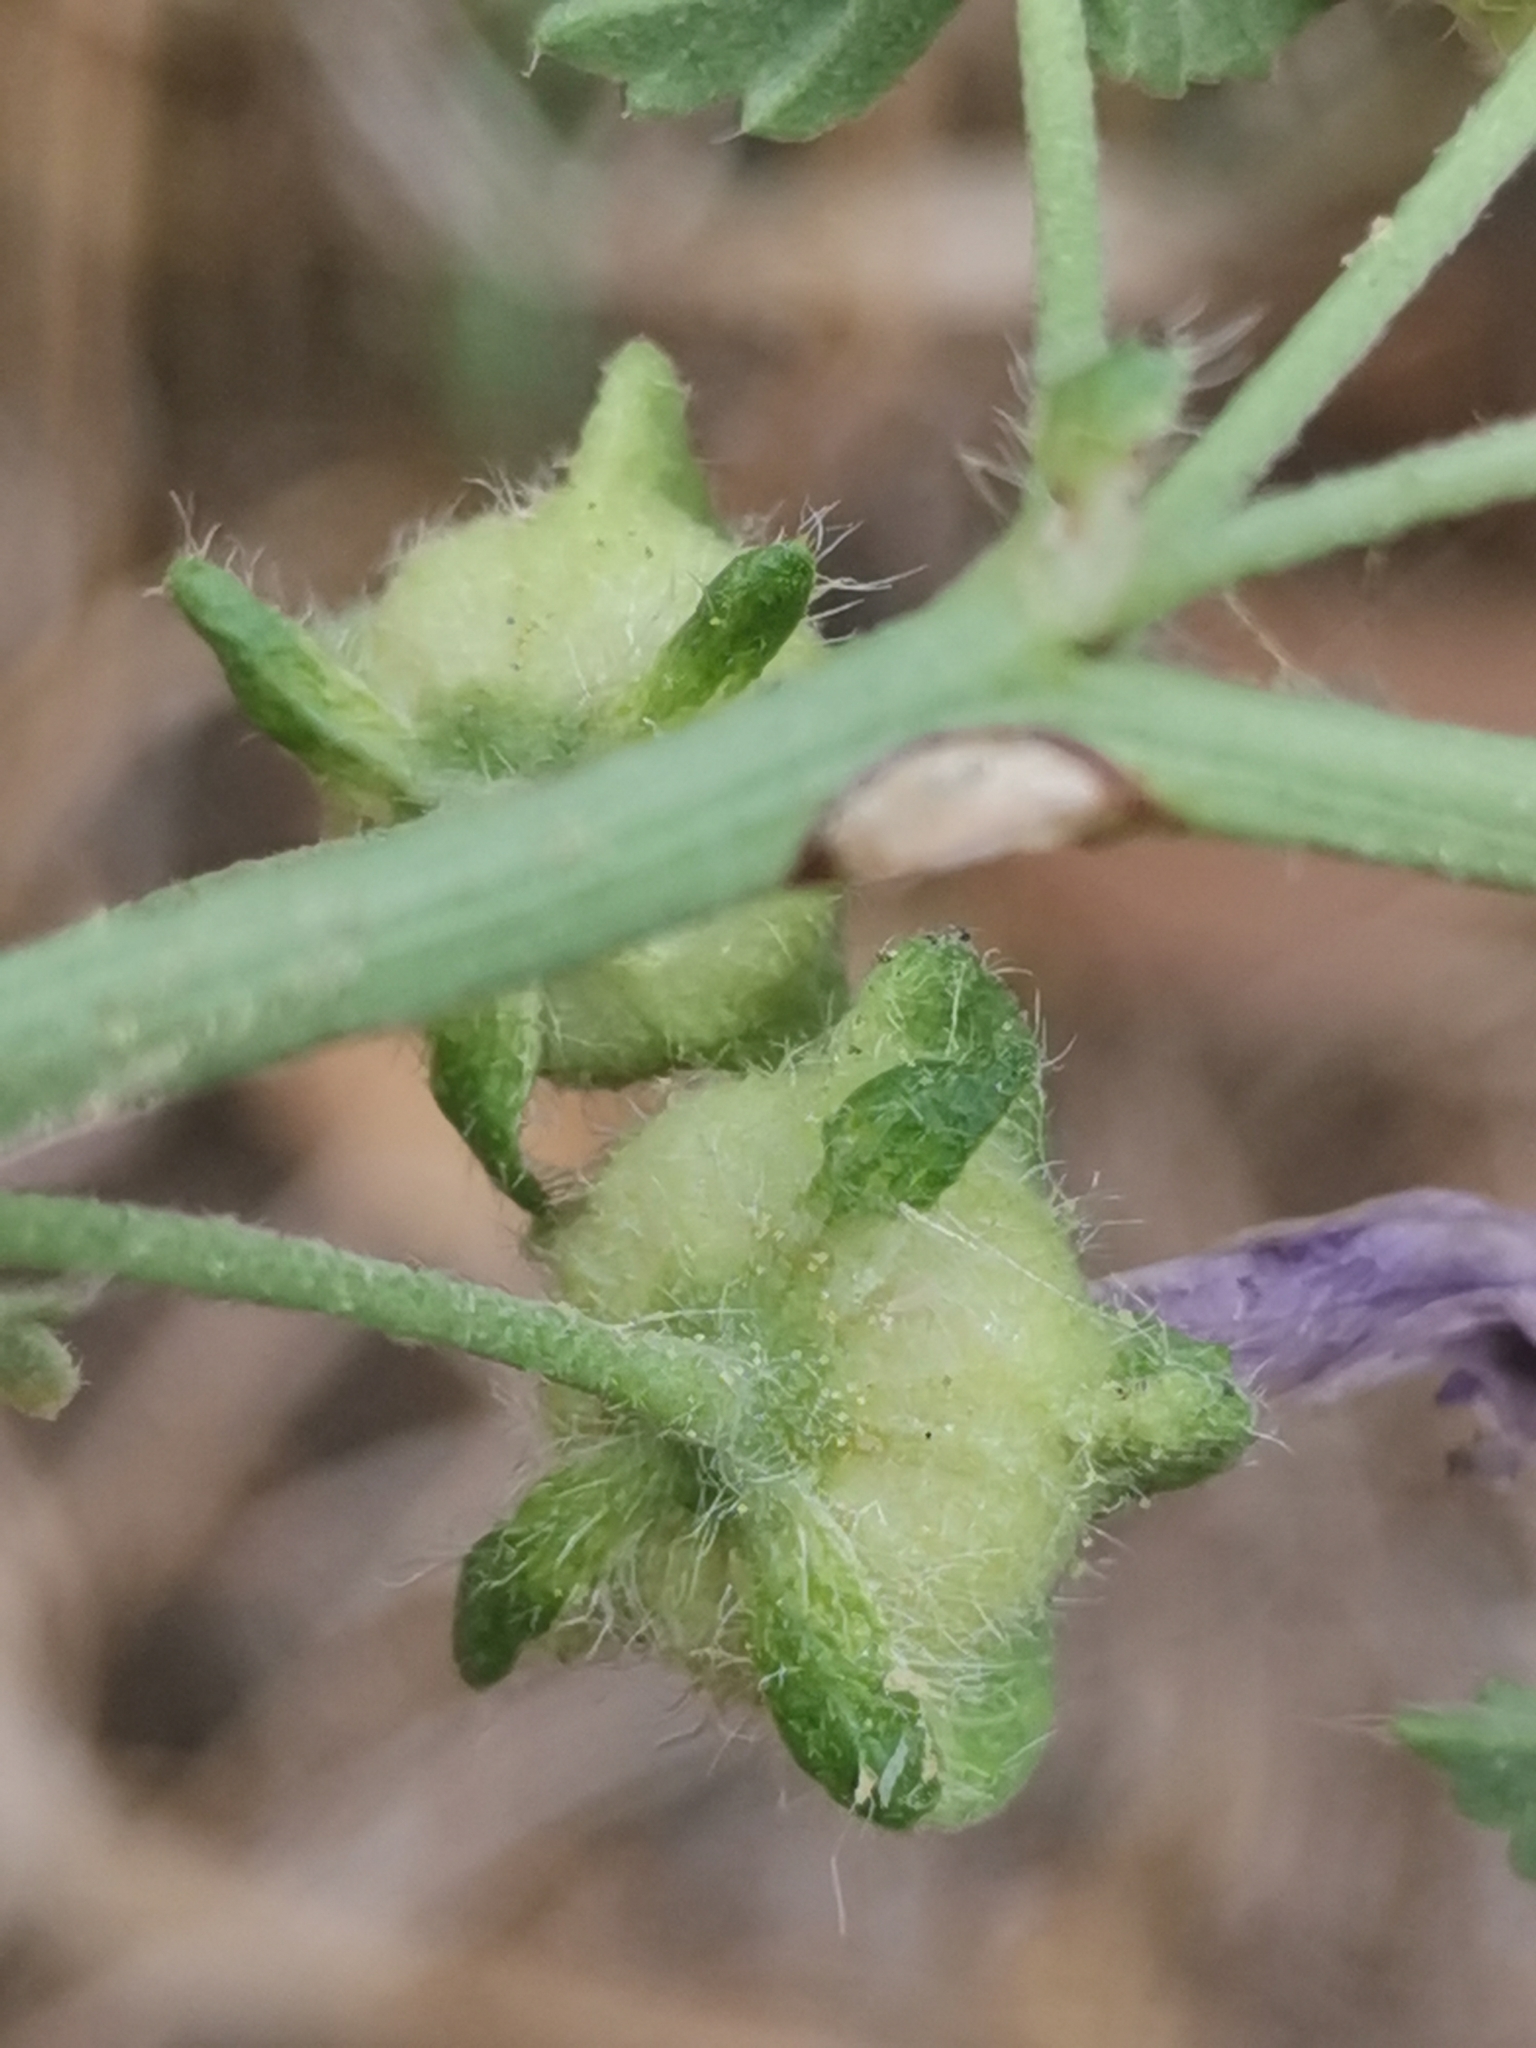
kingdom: Plantae
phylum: Tracheophyta
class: Magnoliopsida
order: Malvales
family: Malvaceae
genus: Malva
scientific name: Malva sylvestris
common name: Common mallow
